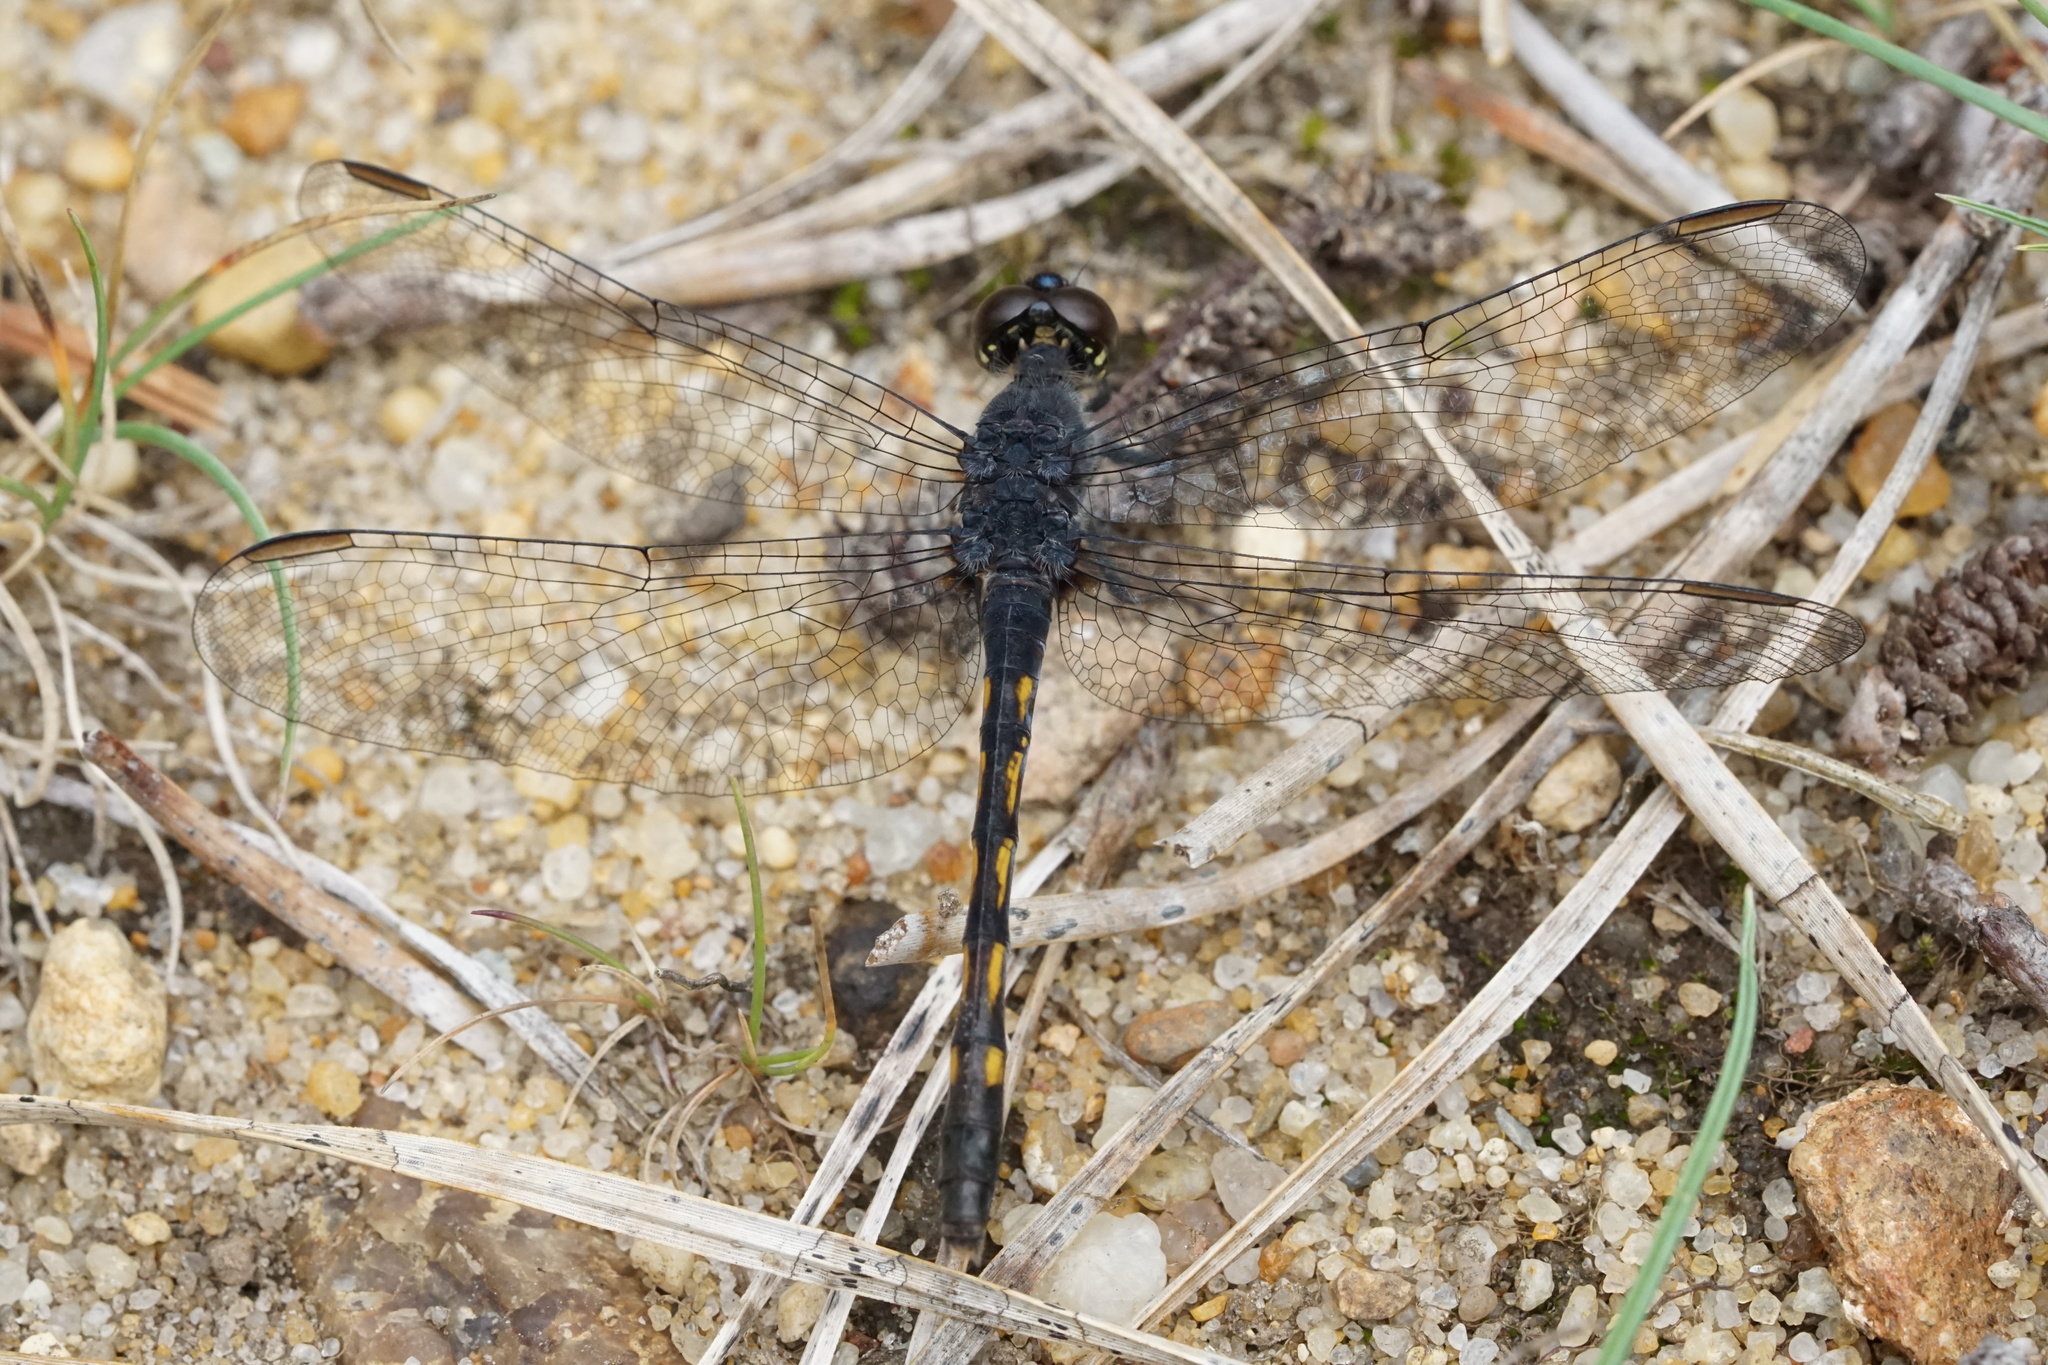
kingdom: Animalia
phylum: Arthropoda
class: Insecta
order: Odonata
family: Libellulidae
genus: Erythrodiplax
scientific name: Erythrodiplax berenice
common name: Seaside dragonlet
